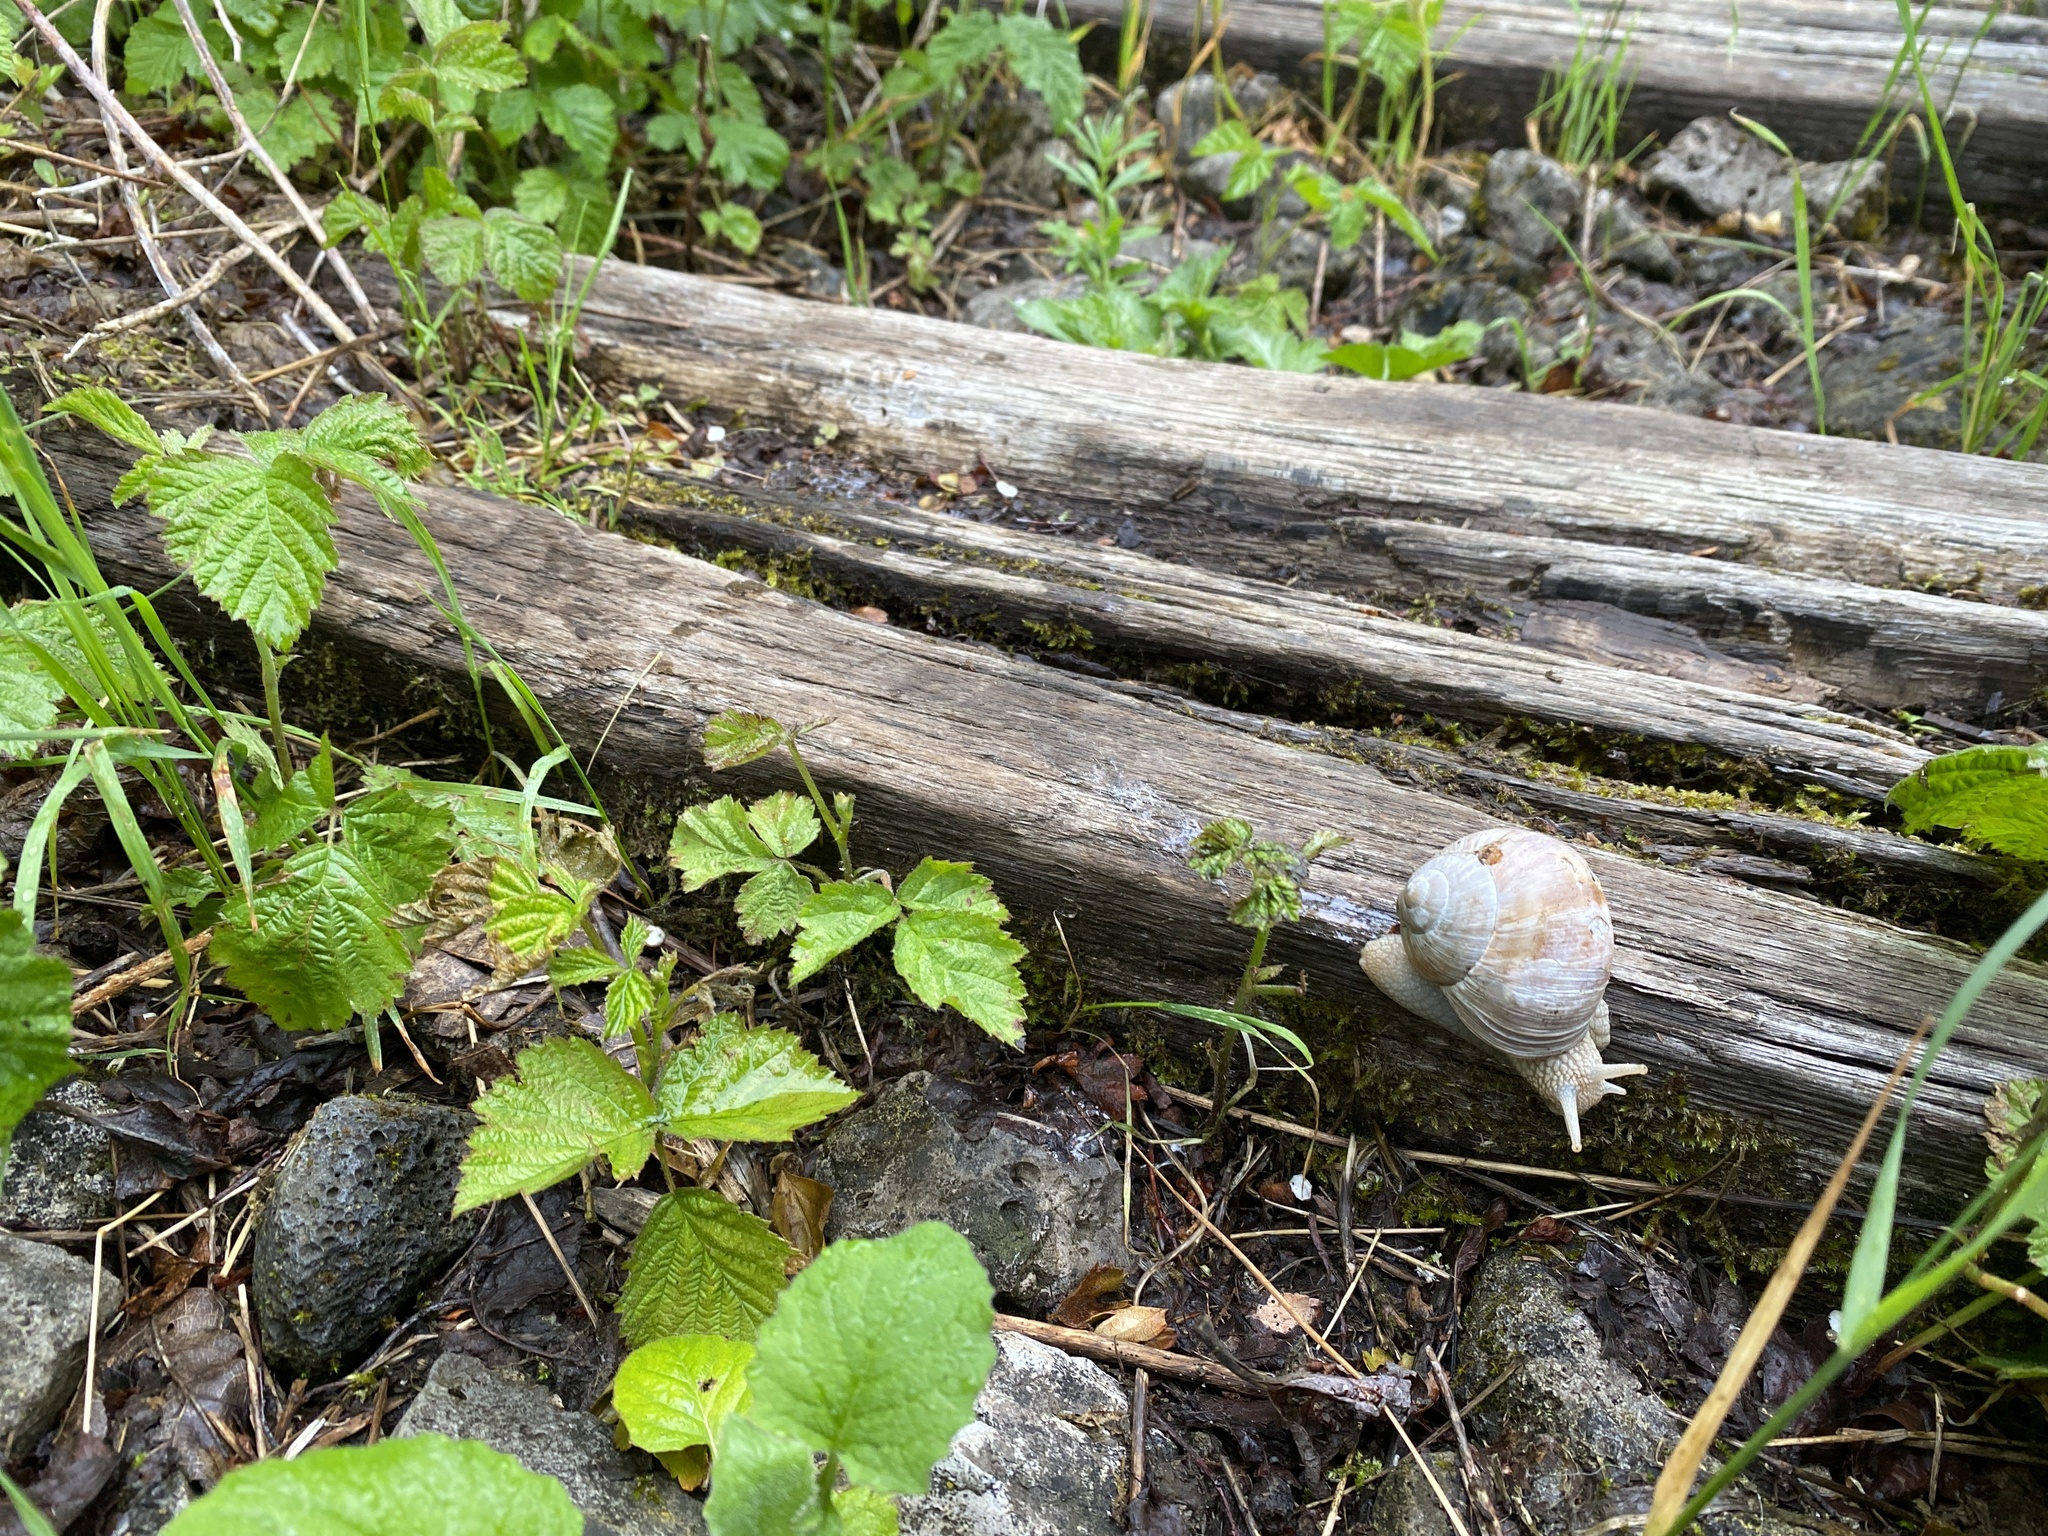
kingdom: Animalia
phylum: Mollusca
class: Gastropoda
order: Stylommatophora
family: Helicidae
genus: Helix
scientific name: Helix pomatia
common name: Roman snail
